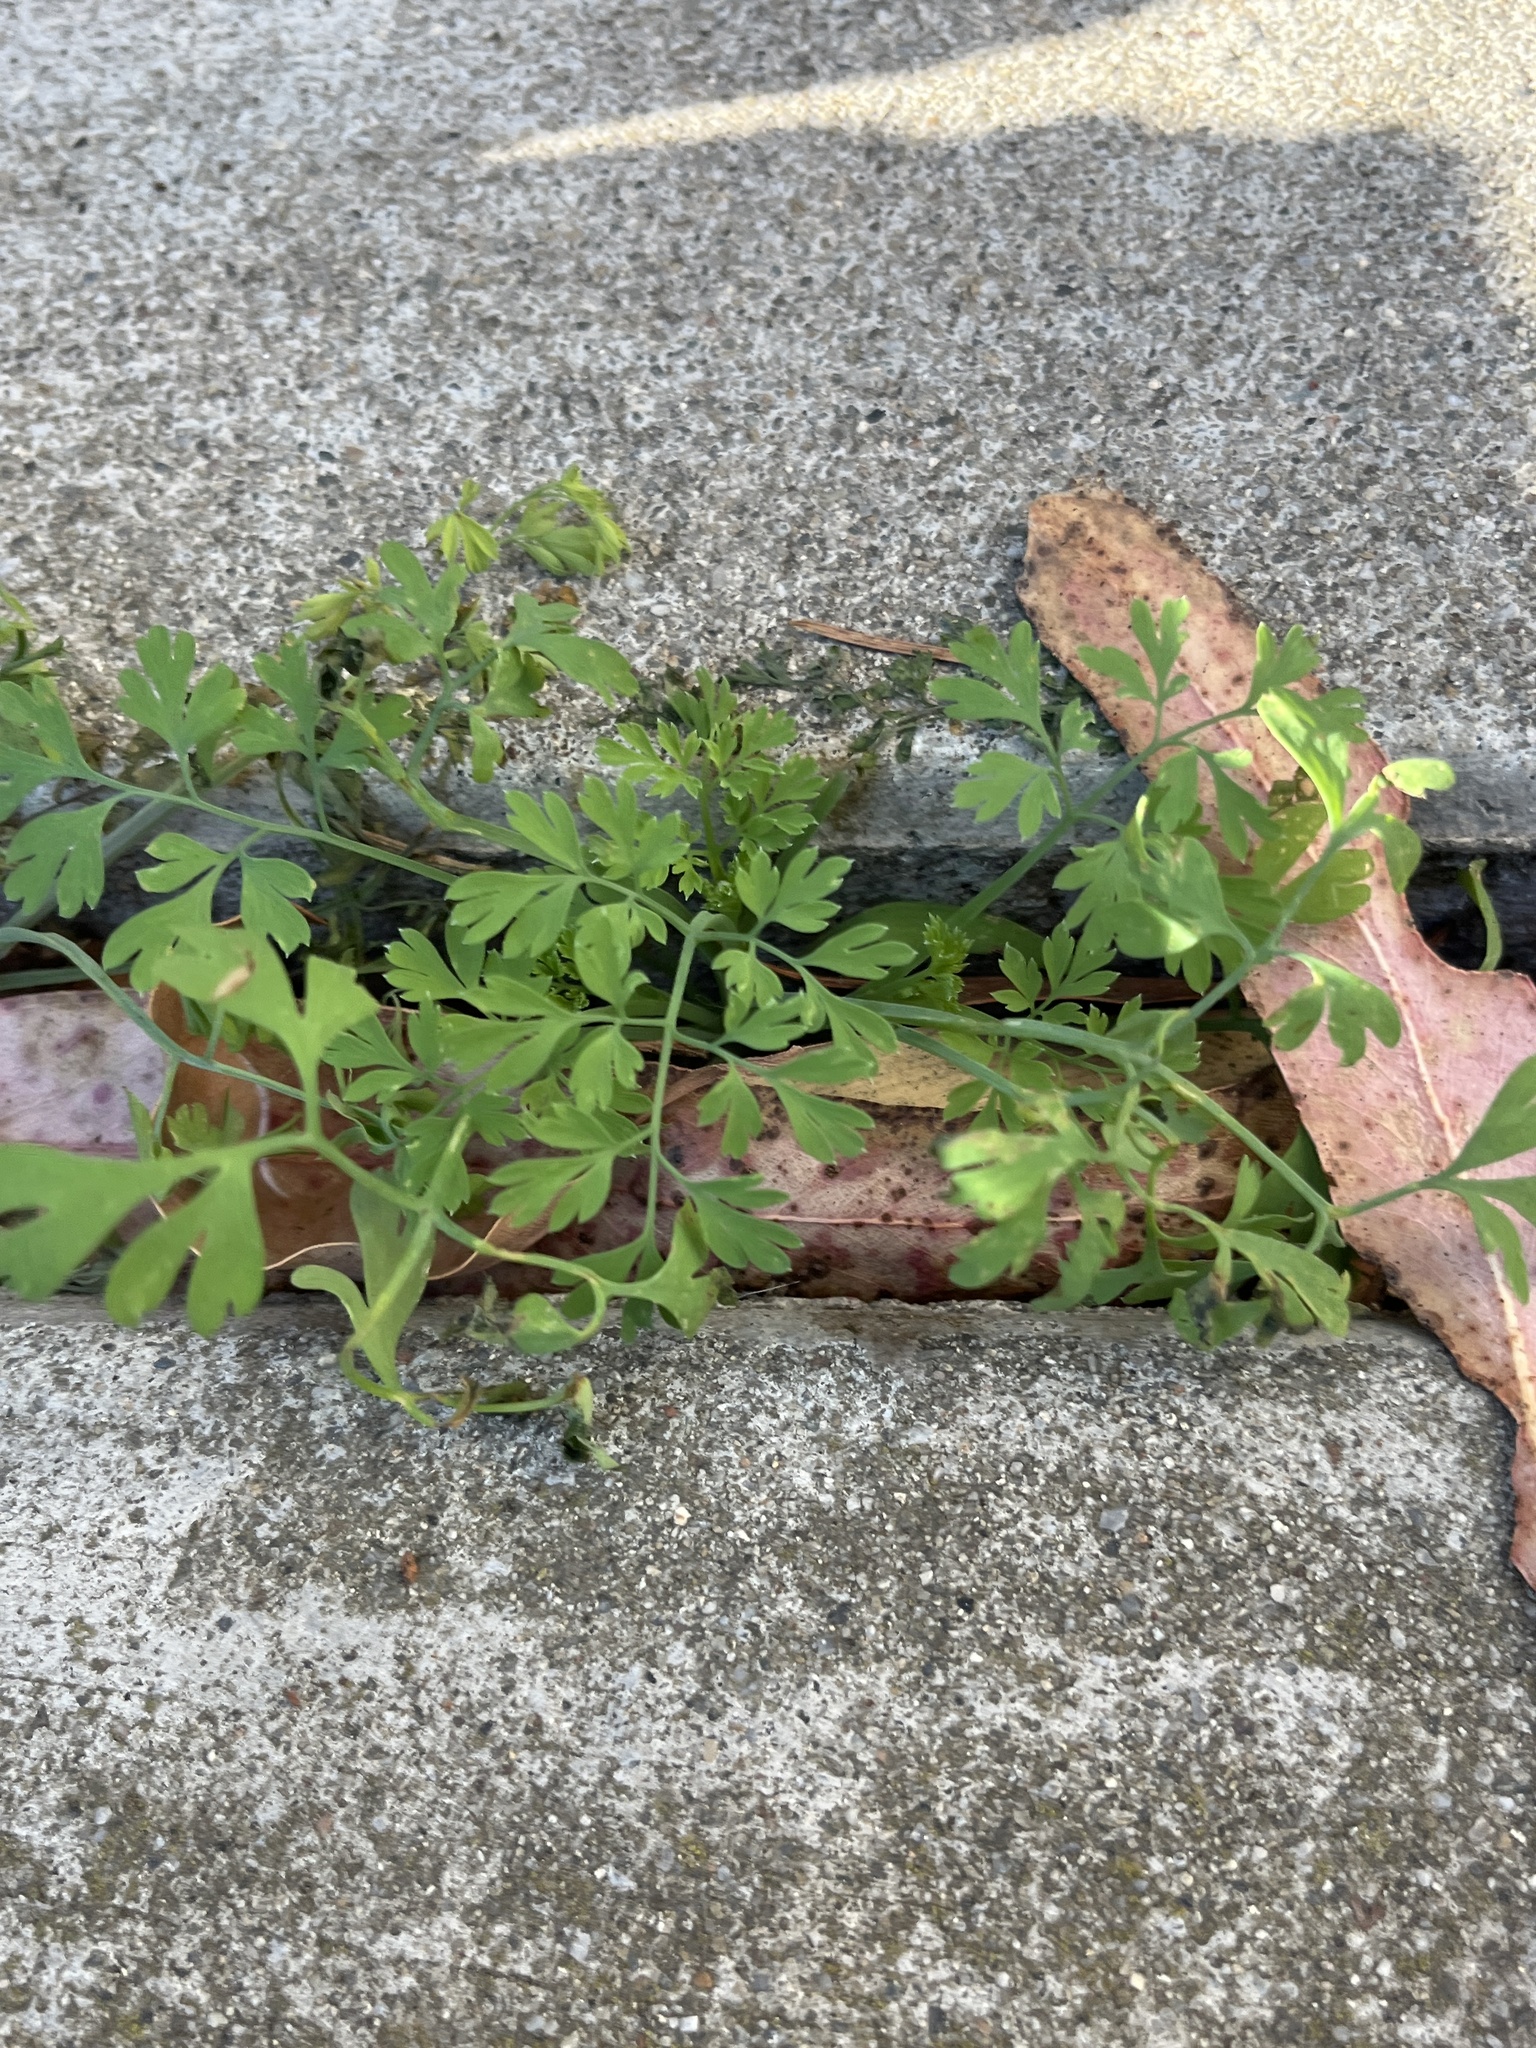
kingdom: Plantae
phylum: Tracheophyta
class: Magnoliopsida
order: Ranunculales
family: Papaveraceae
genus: Fumaria
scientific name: Fumaria
